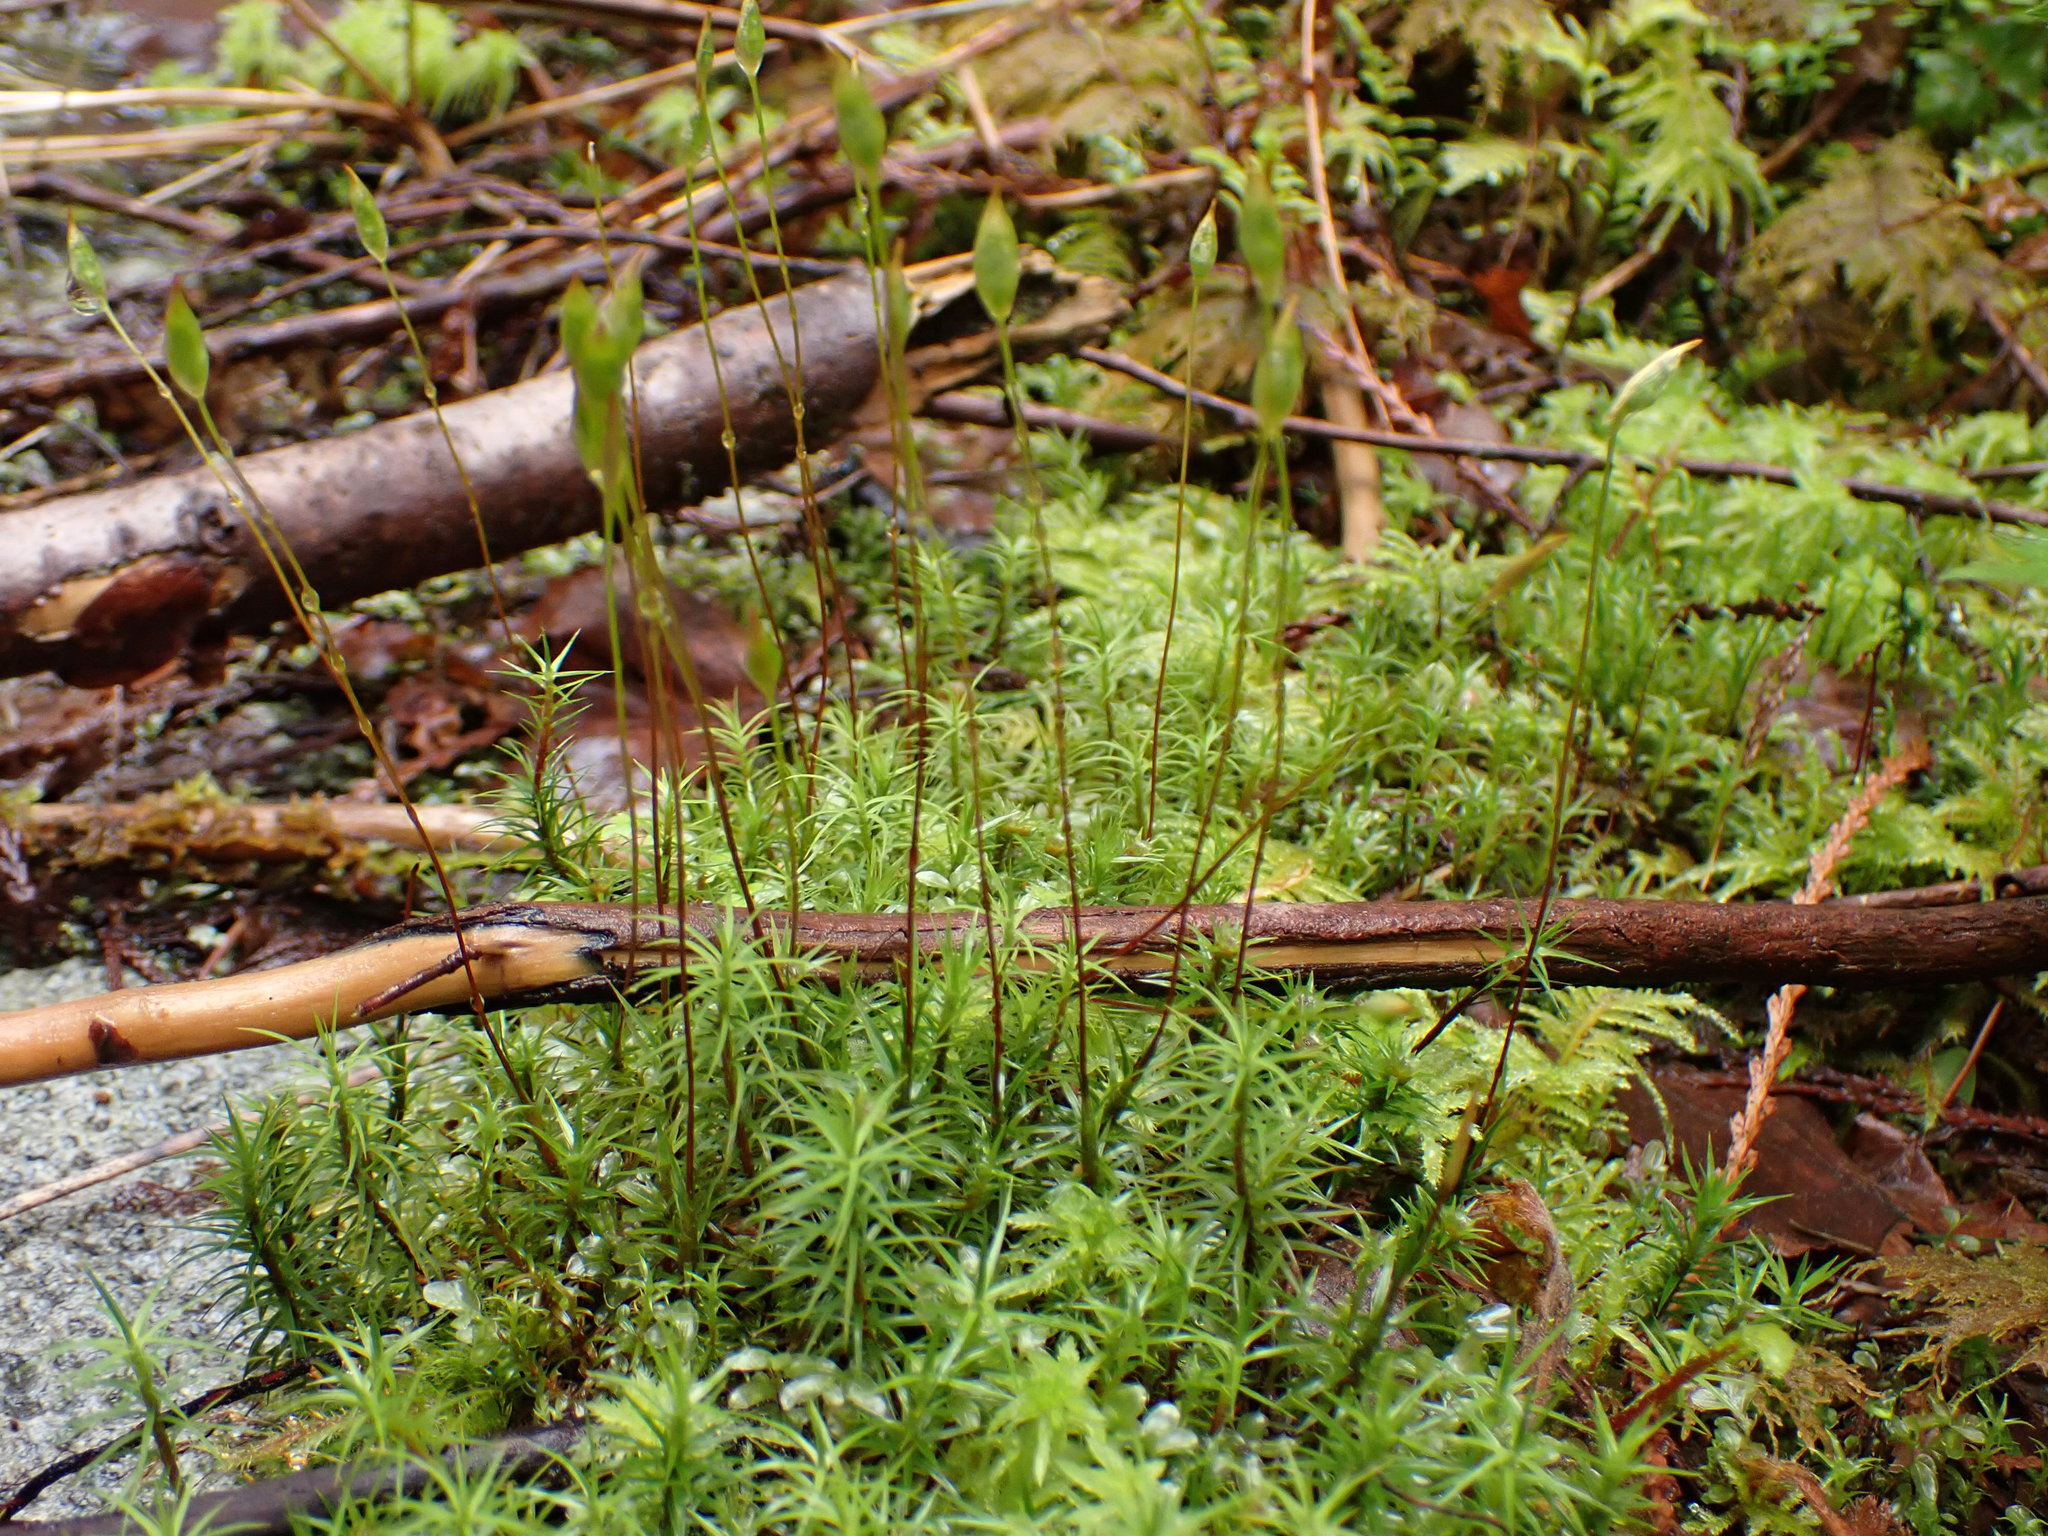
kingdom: Plantae
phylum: Bryophyta
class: Polytrichopsida
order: Polytrichales
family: Polytrichaceae
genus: Polytrichum
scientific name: Polytrichum commune
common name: Common haircap
